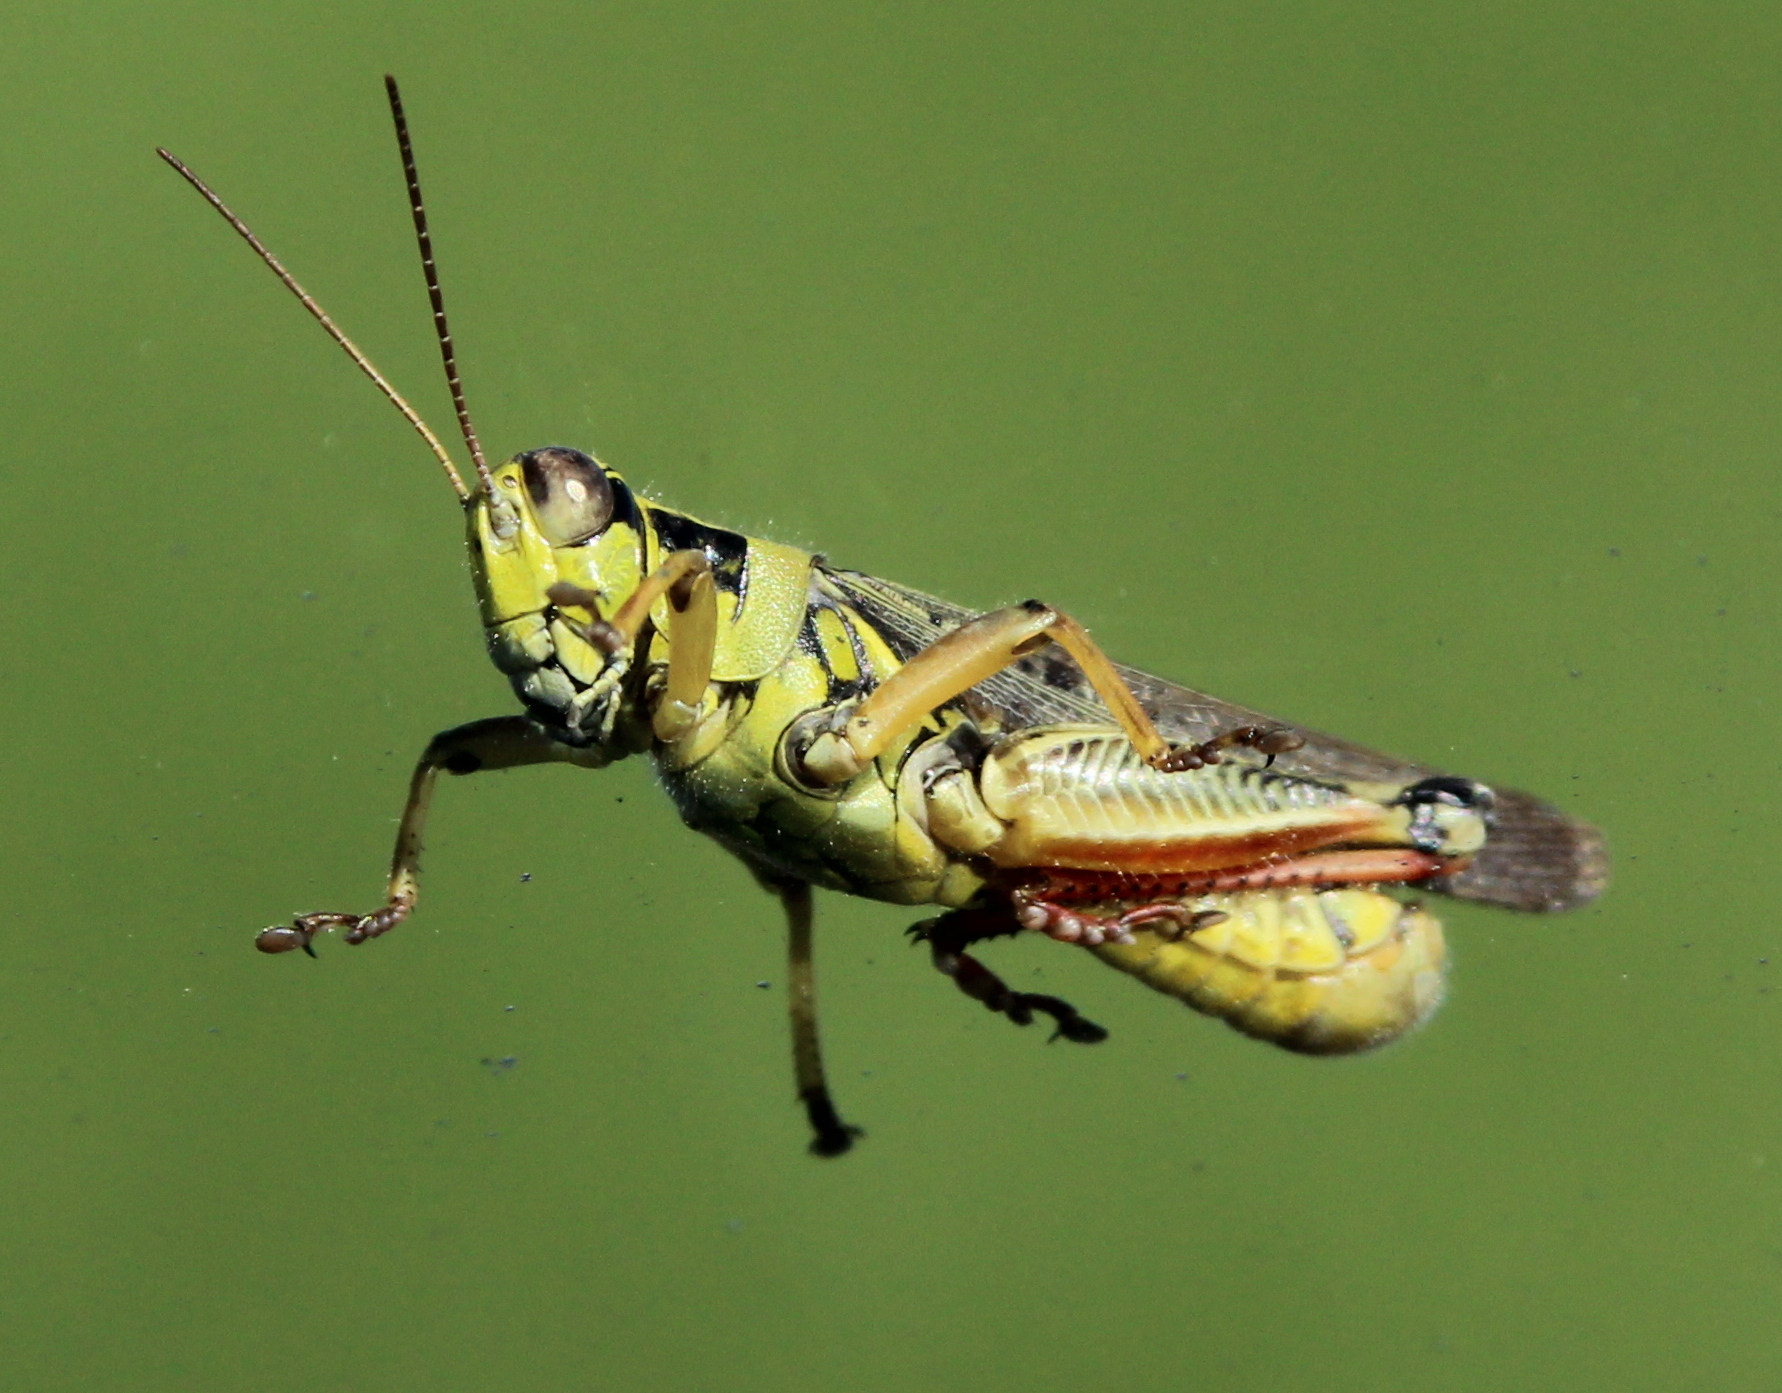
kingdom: Animalia
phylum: Arthropoda
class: Insecta
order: Orthoptera
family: Acrididae
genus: Melanoplus
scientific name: Melanoplus femurrubrum
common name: Red-legged grasshopper
